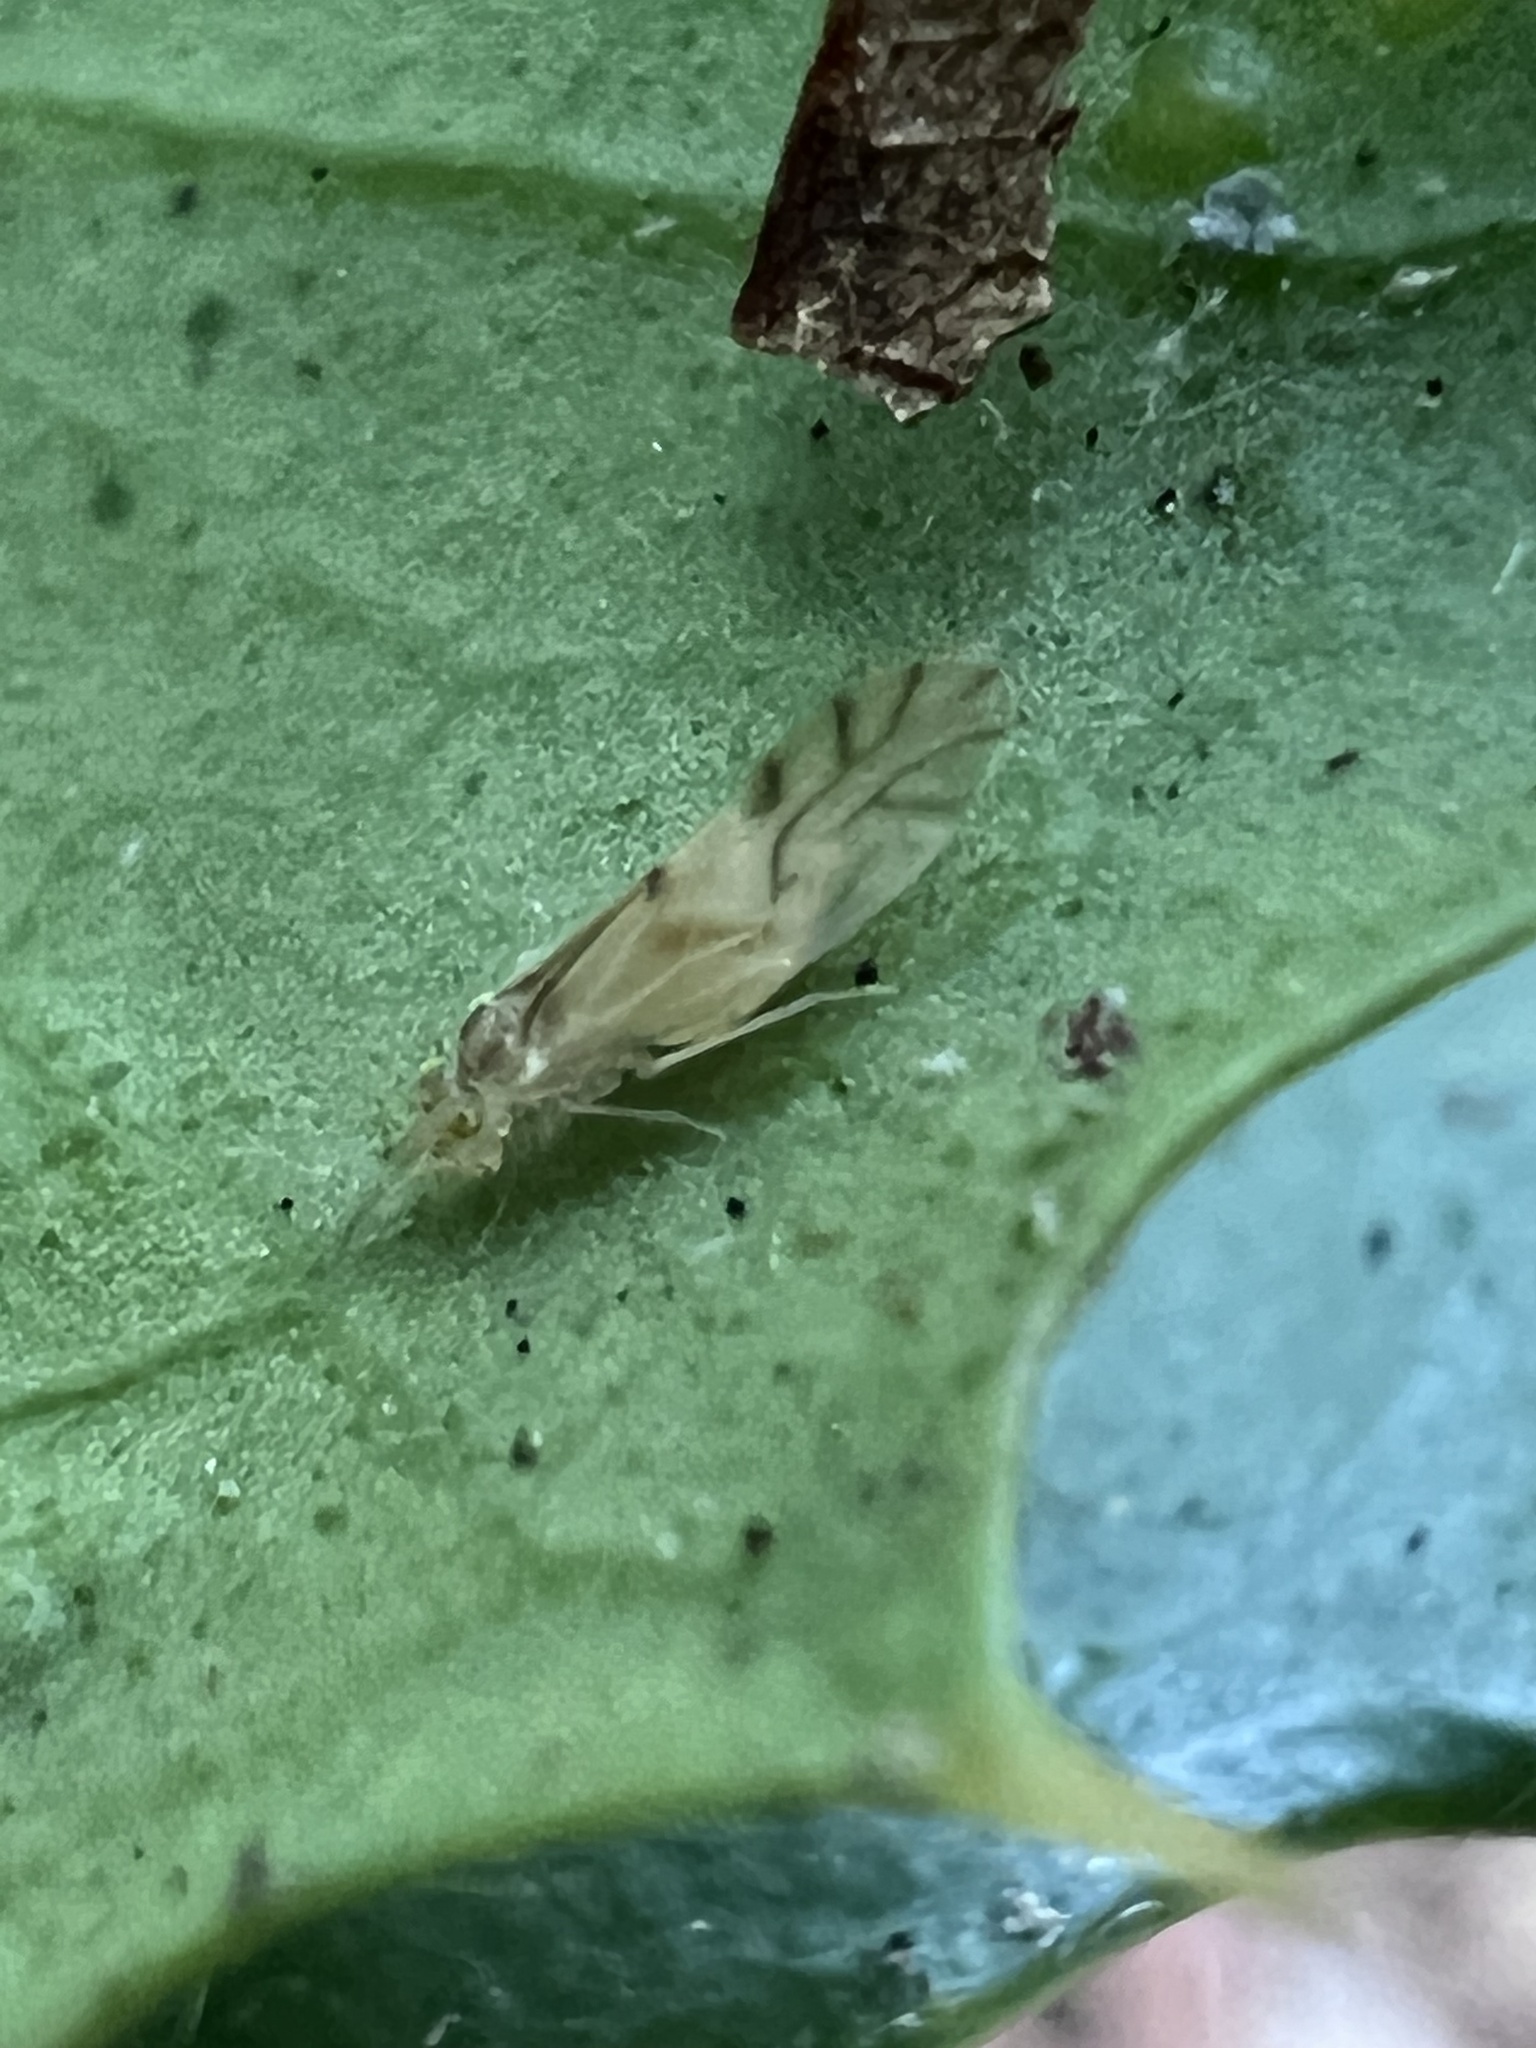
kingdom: Animalia
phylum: Arthropoda
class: Insecta
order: Psocodea
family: Caeciliusidae
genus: Valenzuela
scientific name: Valenzuela flavidus
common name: Yellow barklouse
